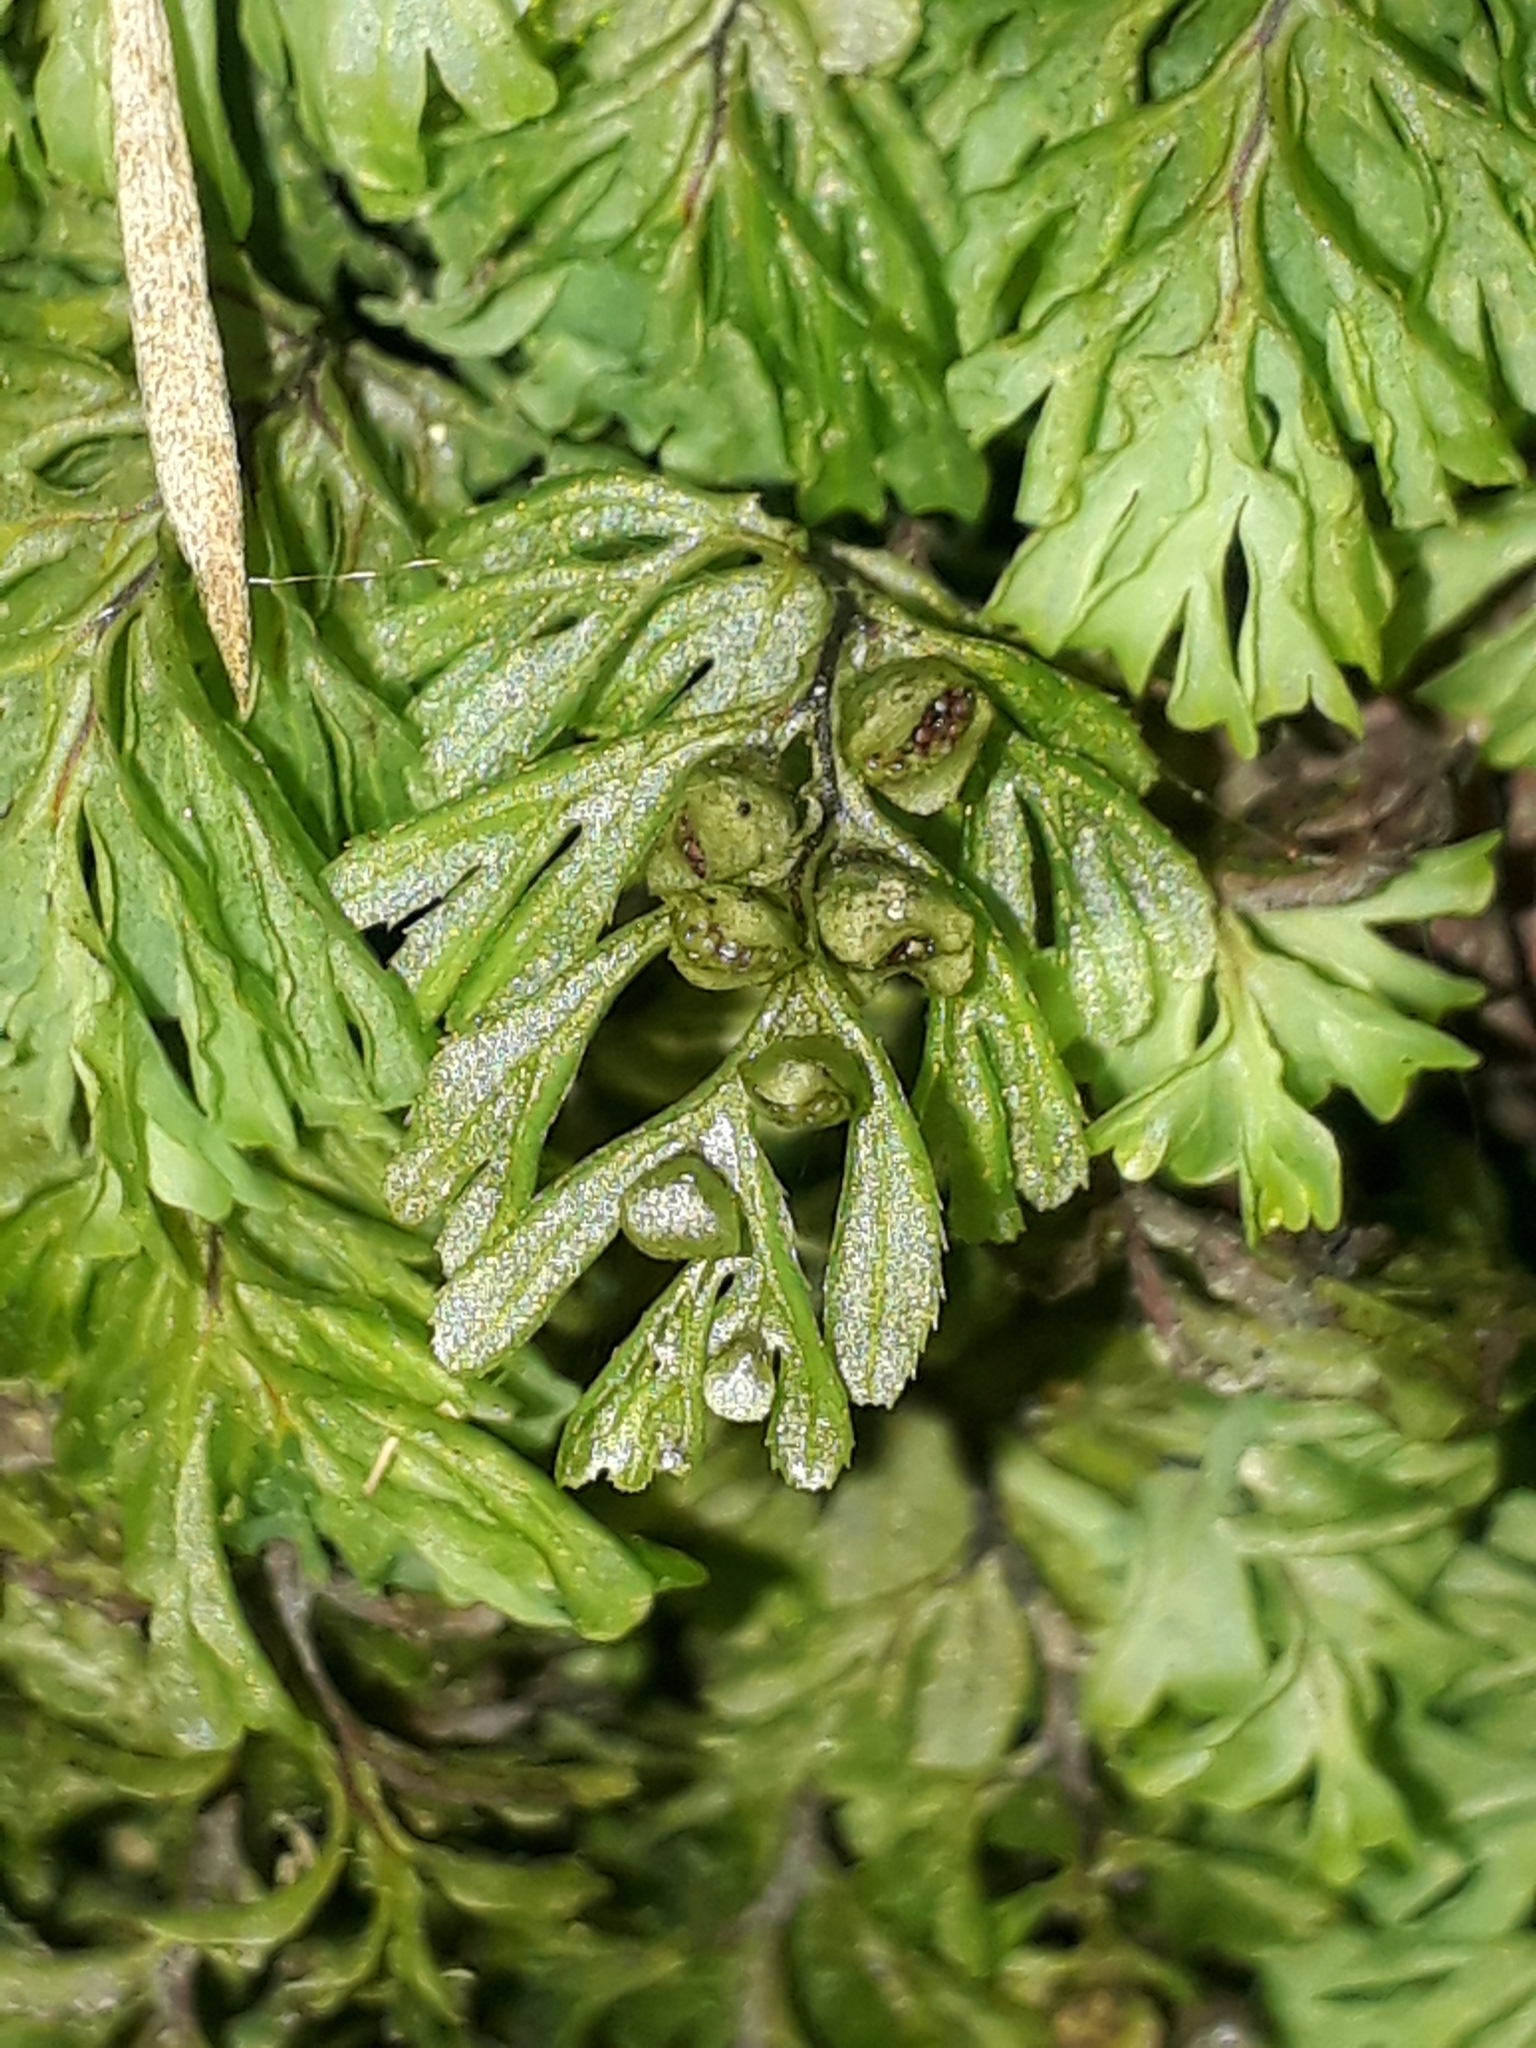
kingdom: Plantae
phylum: Tracheophyta
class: Polypodiopsida
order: Hymenophyllales
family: Hymenophyllaceae
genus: Hymenophyllum
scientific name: Hymenophyllum cupressiforme
